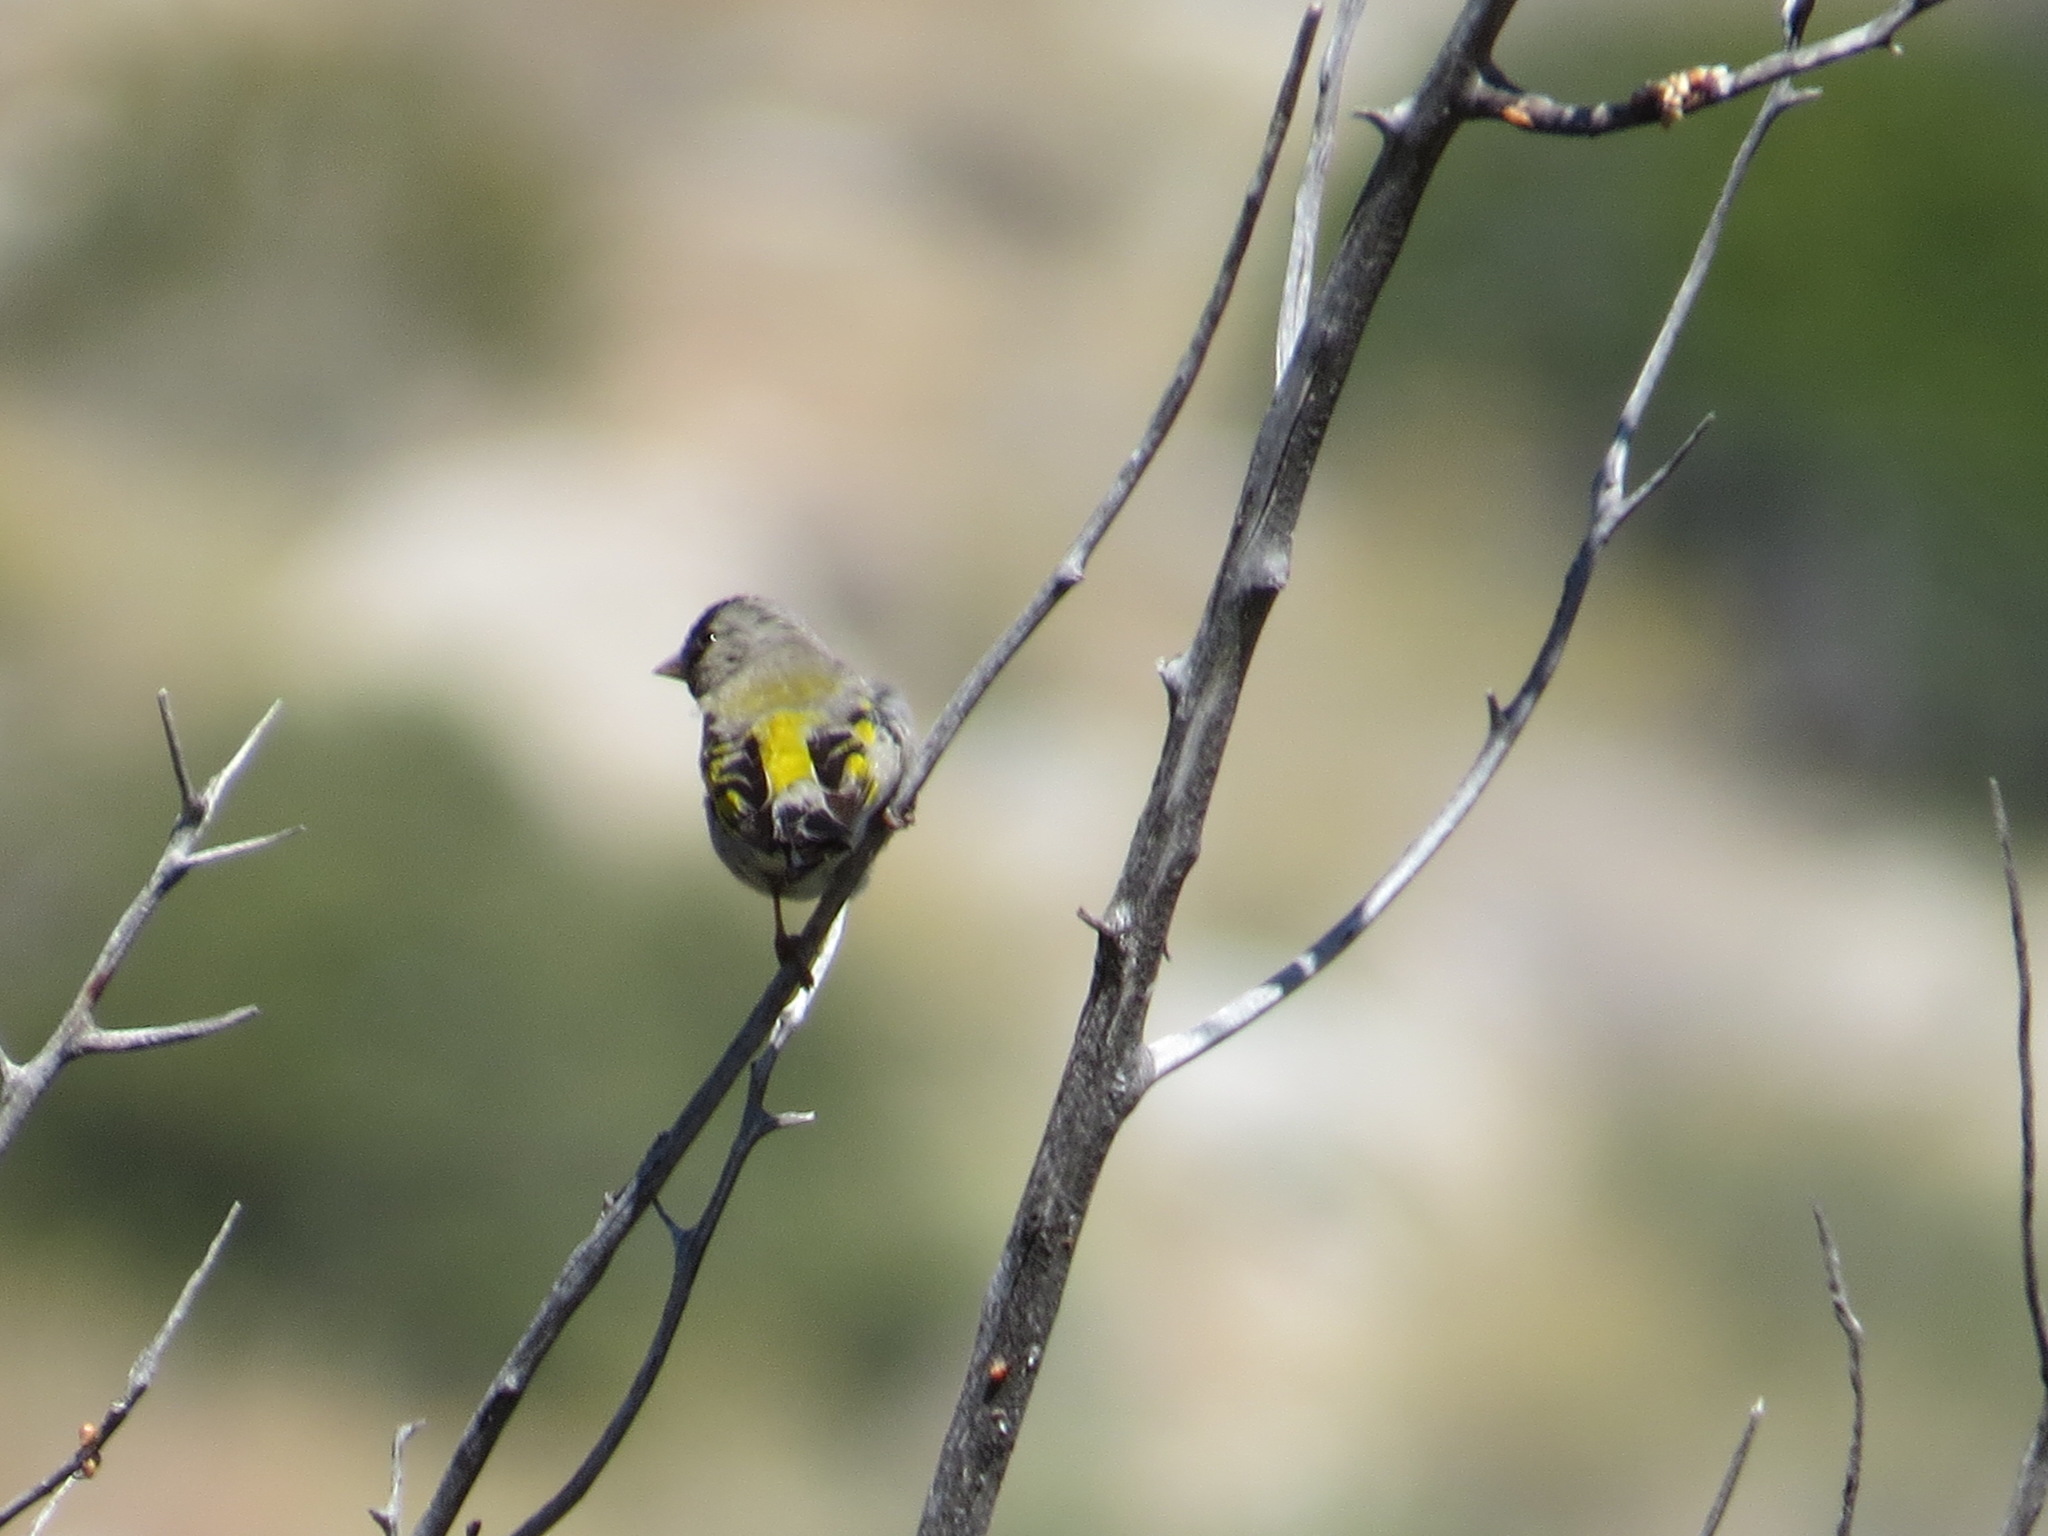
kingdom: Animalia
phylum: Chordata
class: Aves
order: Passeriformes
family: Fringillidae
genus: Spinus
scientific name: Spinus lawrencei
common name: Lawrence's goldfinch
